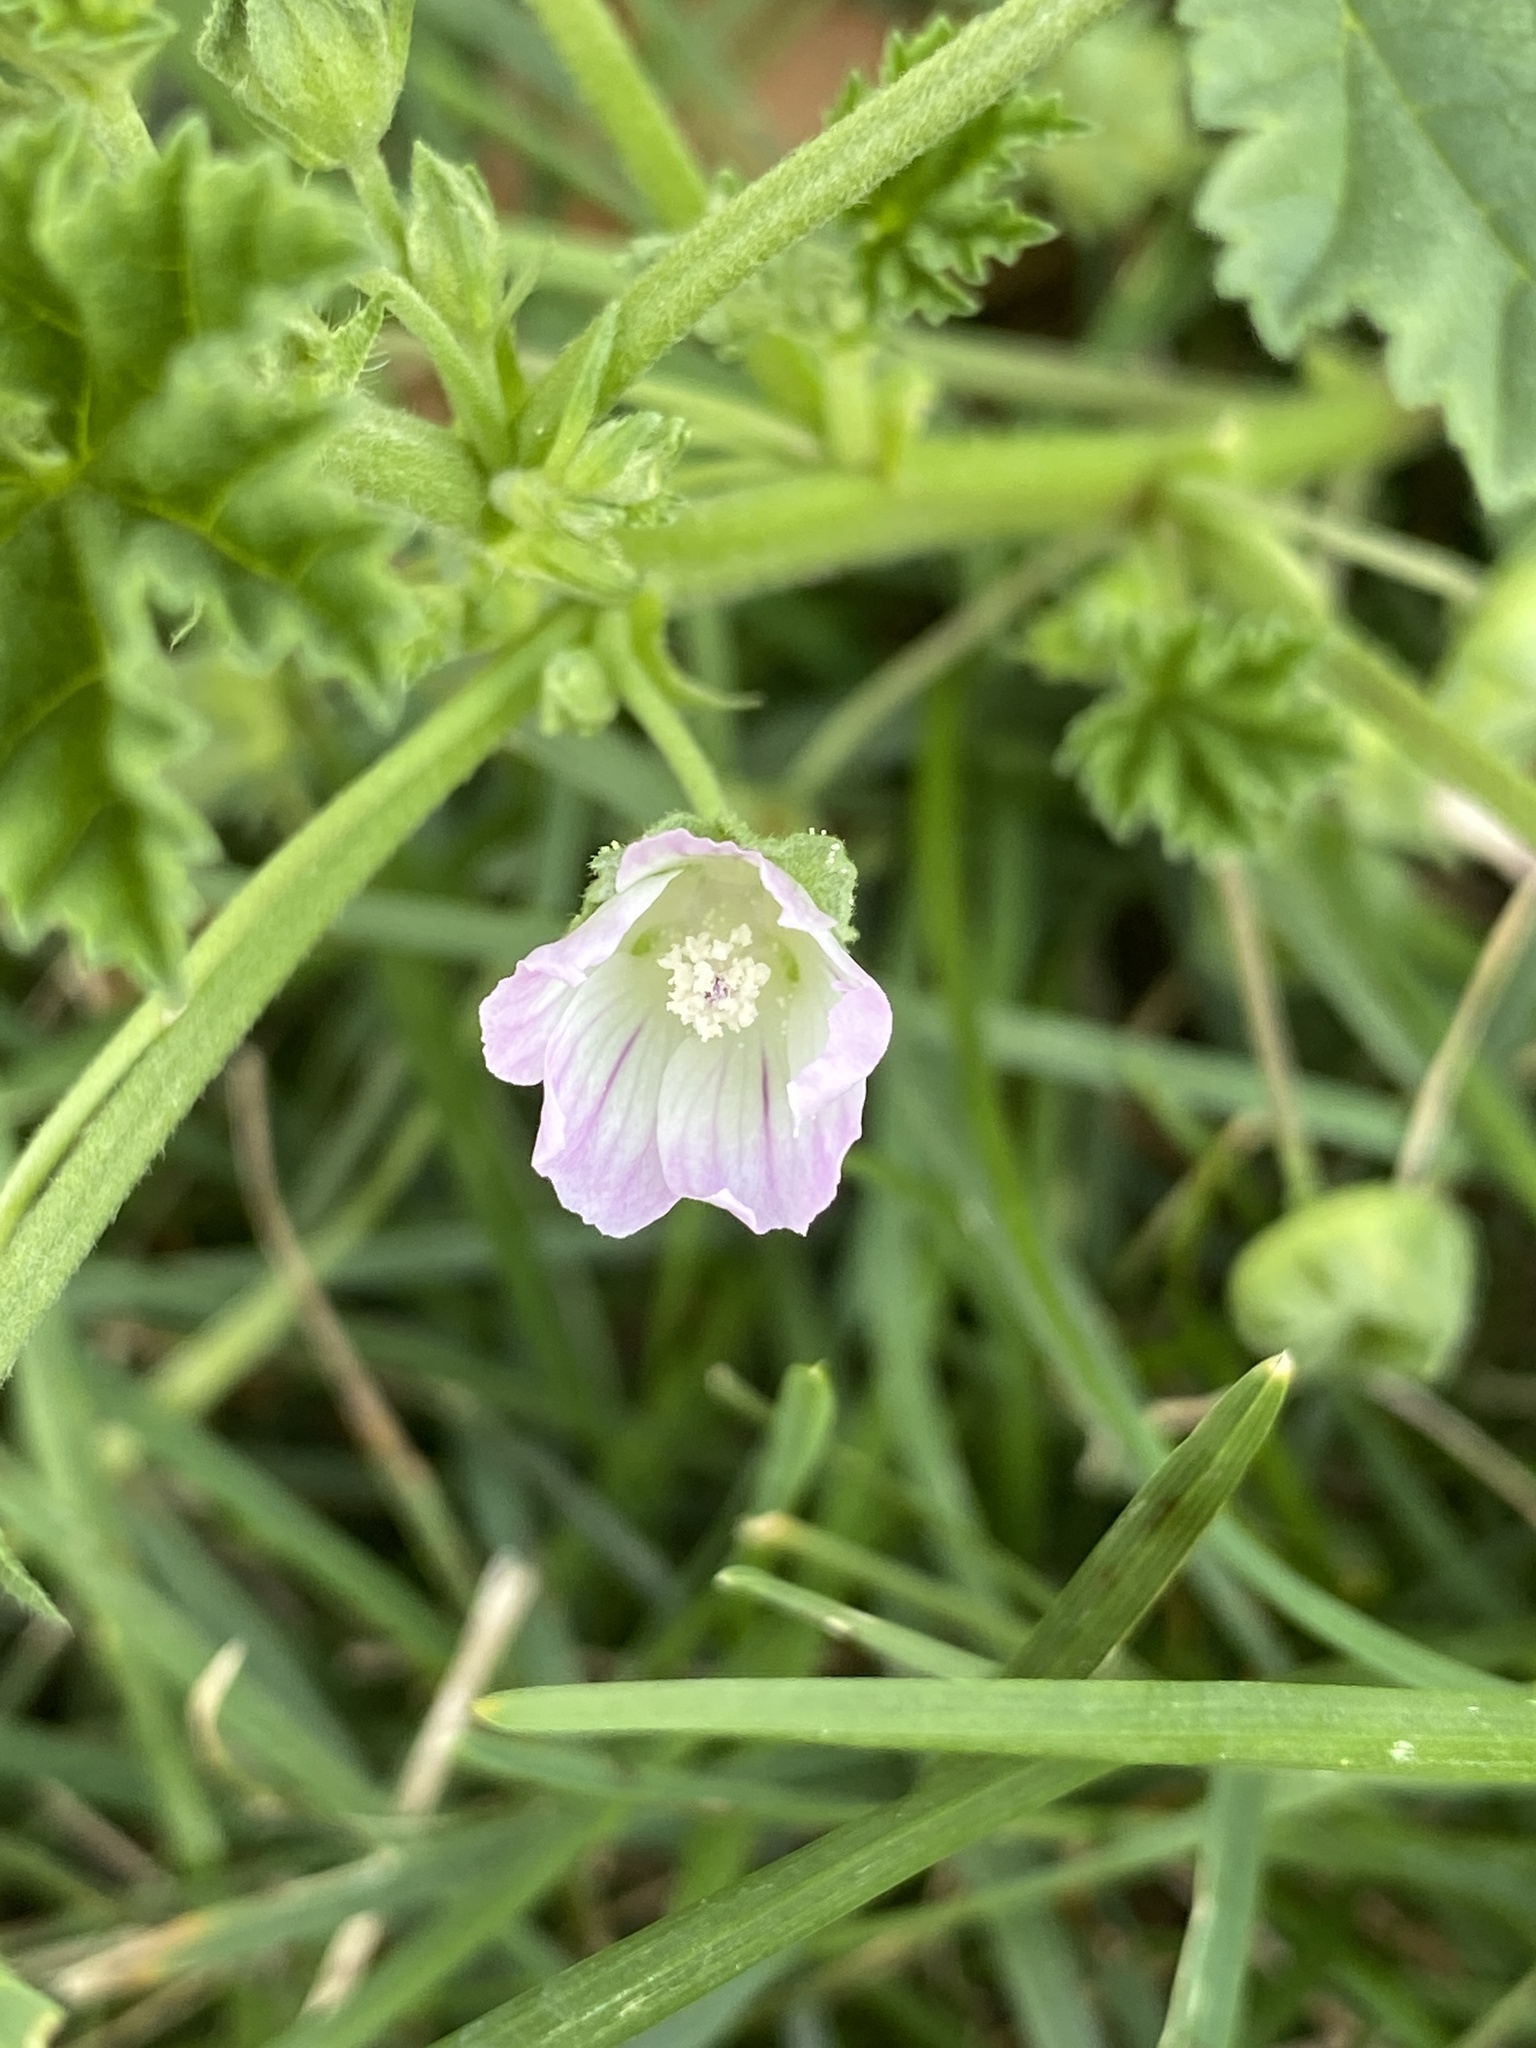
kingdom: Plantae
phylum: Tracheophyta
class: Magnoliopsida
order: Malvales
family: Malvaceae
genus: Malva
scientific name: Malva neglecta
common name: Common mallow
